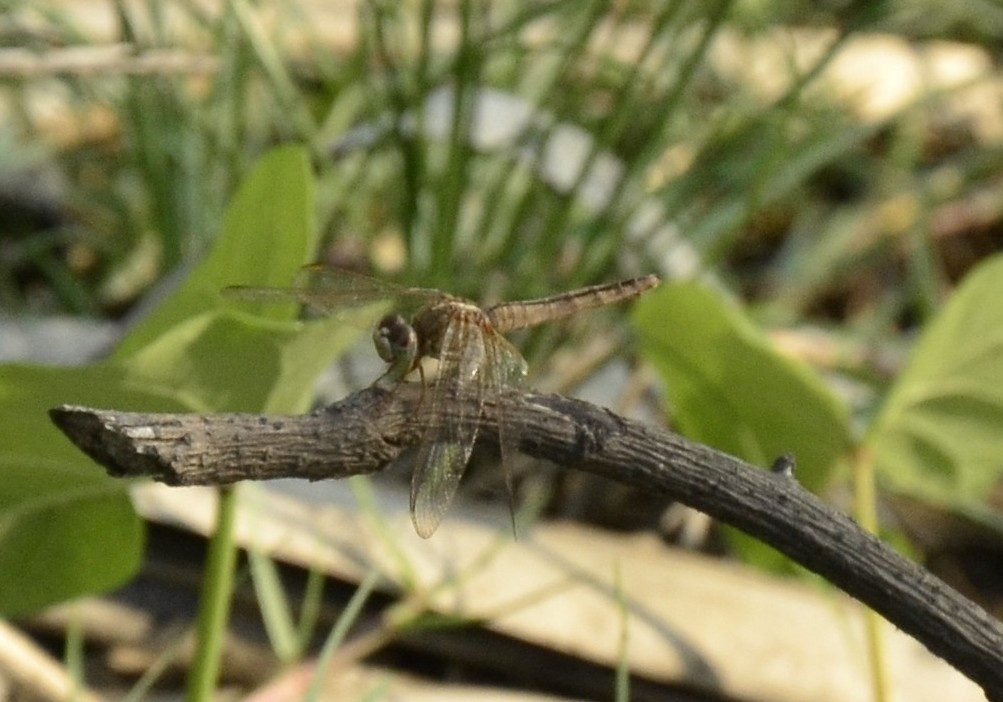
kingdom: Animalia
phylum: Arthropoda
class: Insecta
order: Odonata
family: Libellulidae
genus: Brachythemis
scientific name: Brachythemis contaminata
